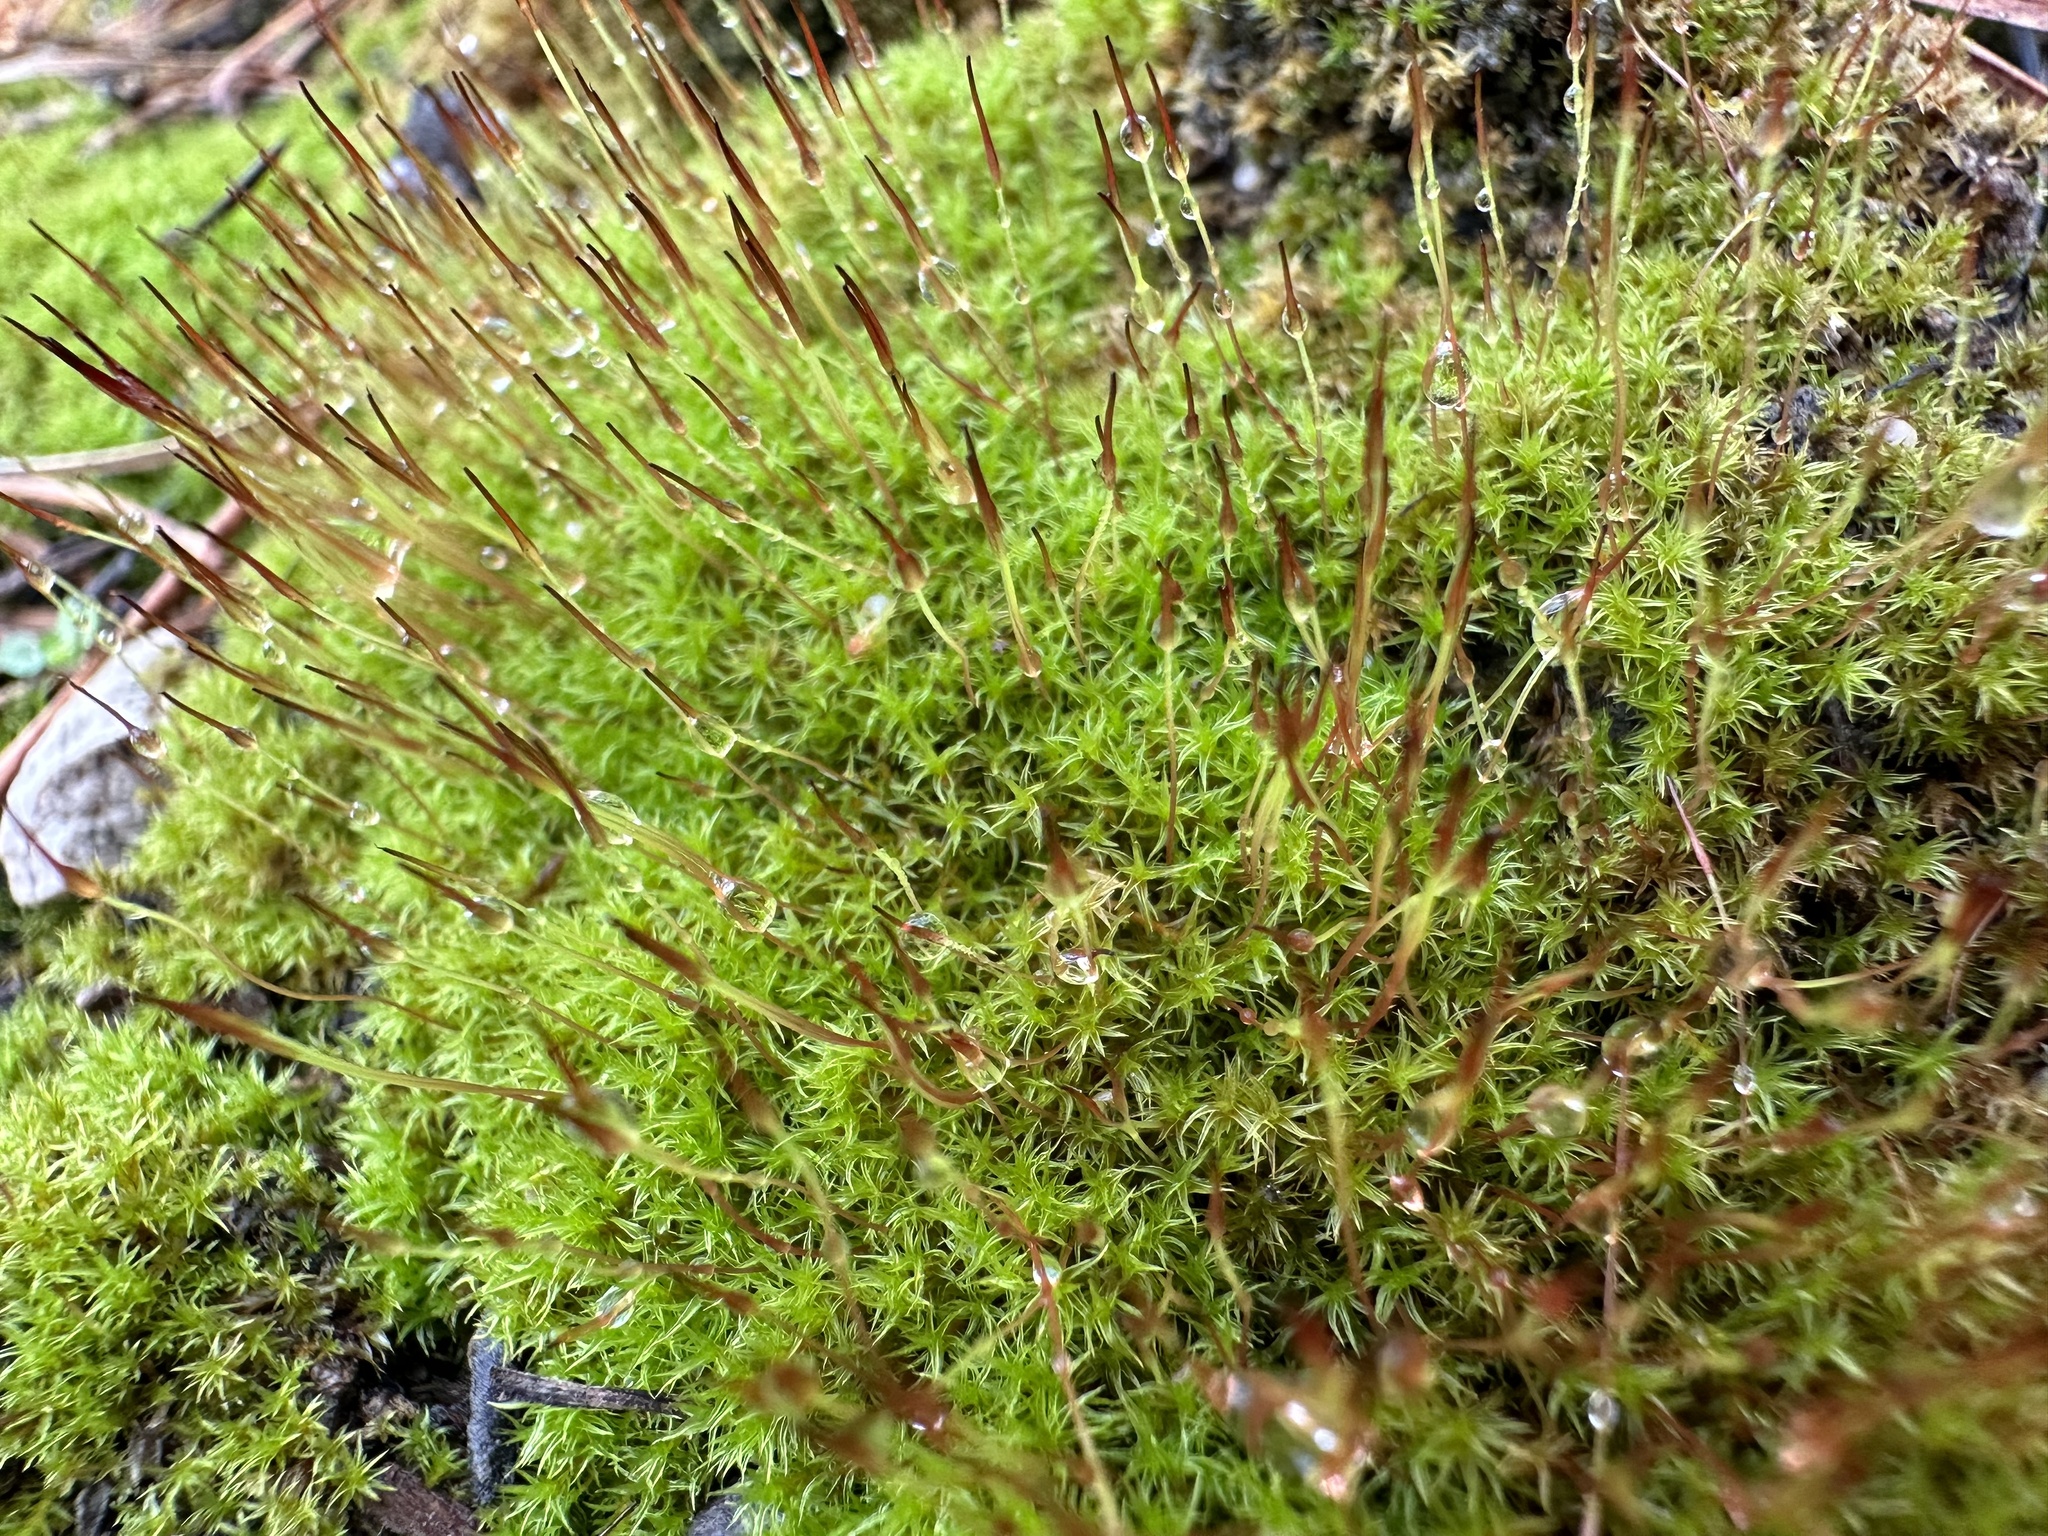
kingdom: Plantae
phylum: Bryophyta
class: Bryopsida
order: Dicranales
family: Ditrichaceae
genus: Ceratodon
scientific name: Ceratodon purpureus
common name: Redshank
